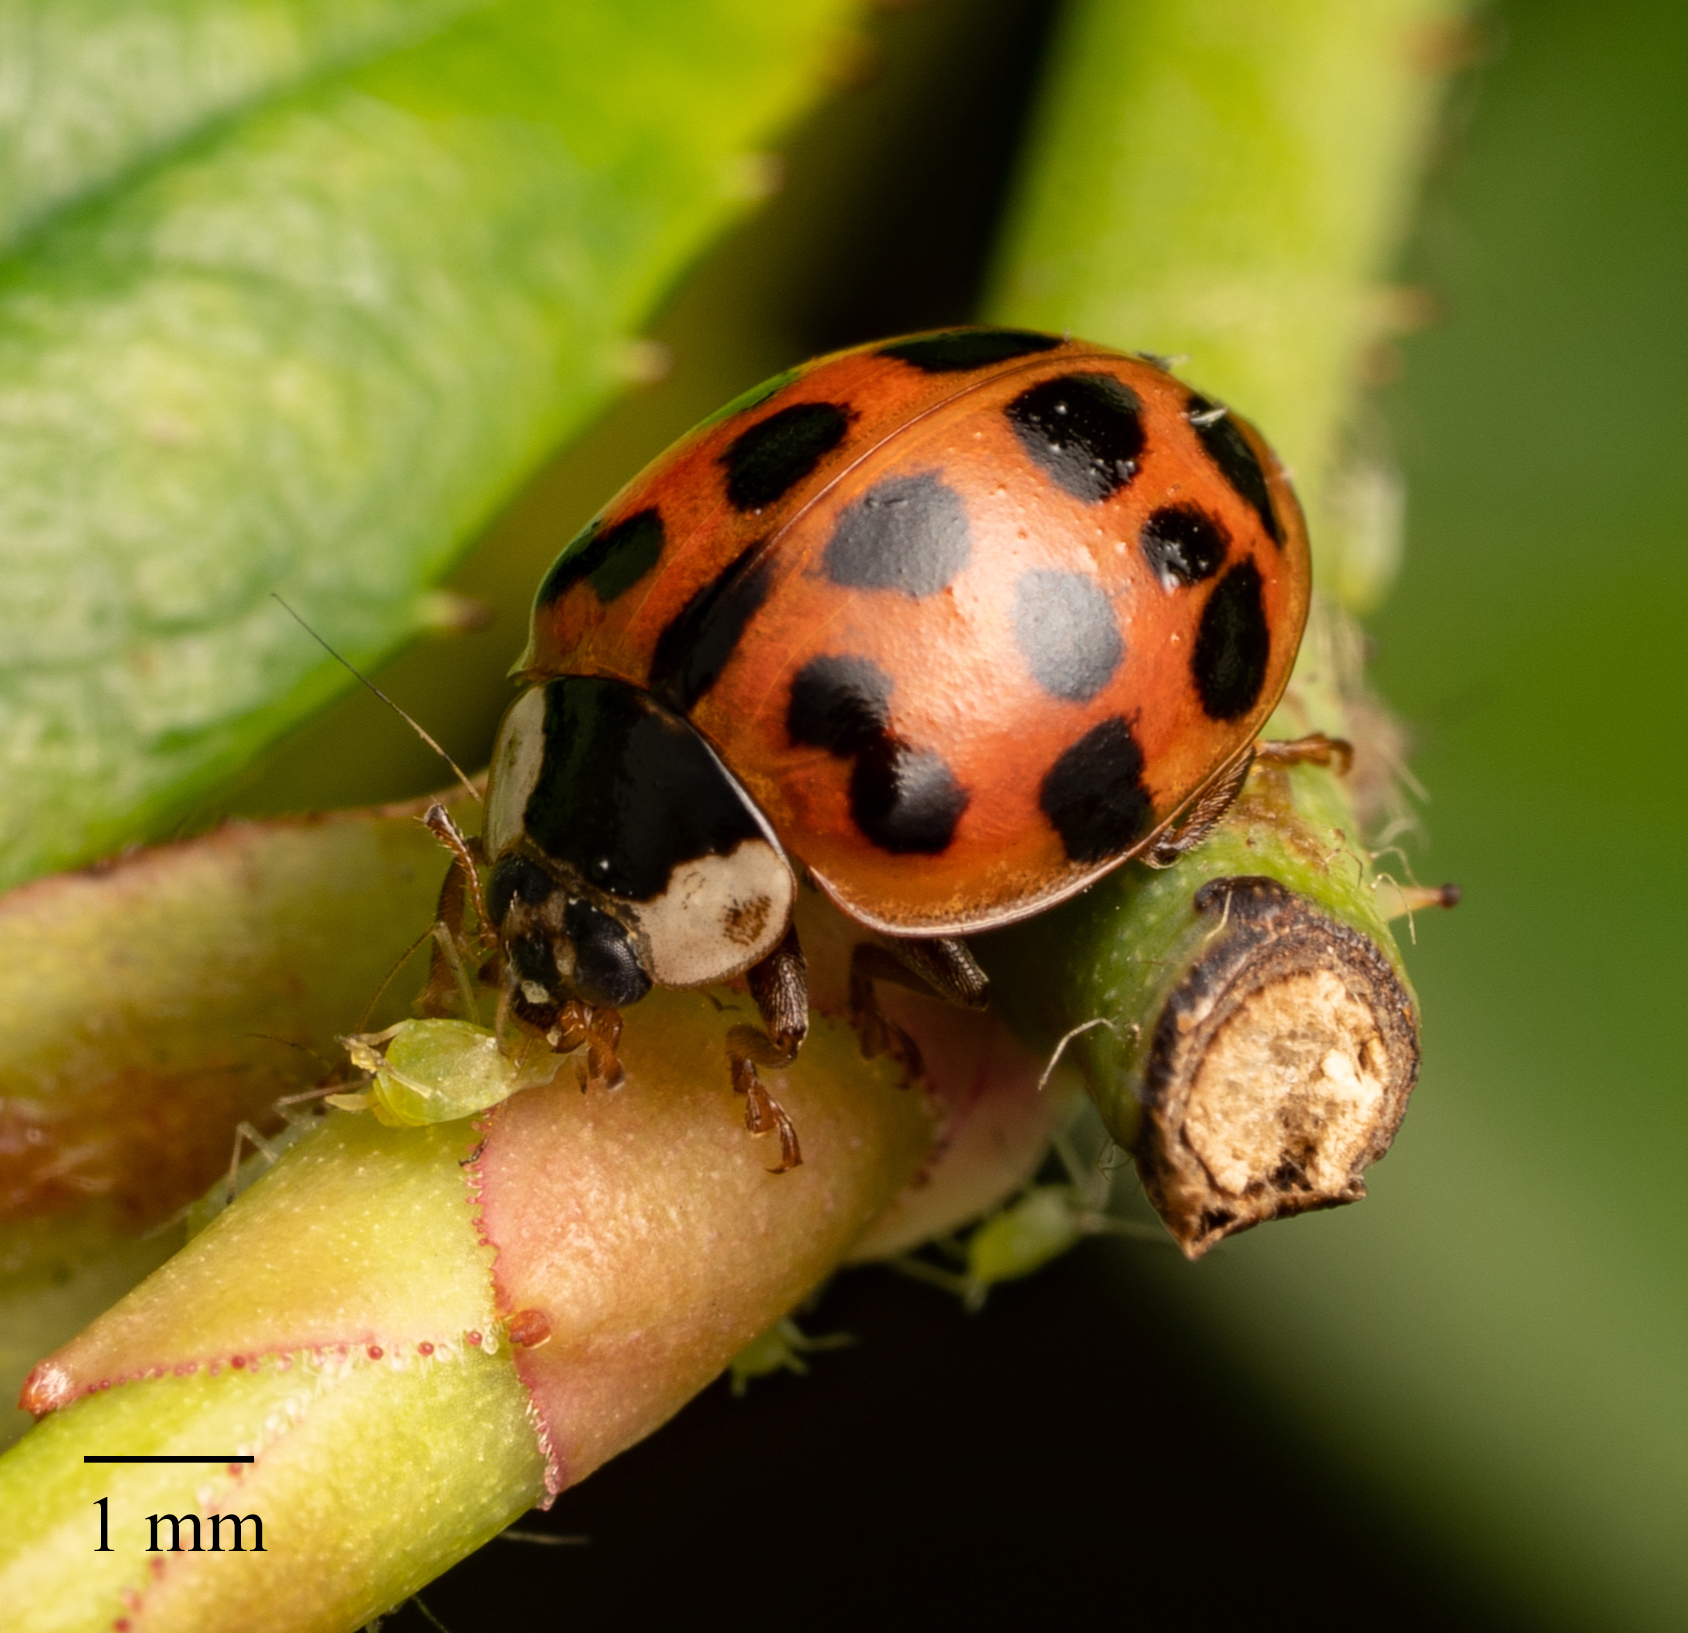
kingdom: Animalia
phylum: Arthropoda
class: Insecta
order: Coleoptera
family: Coccinellidae
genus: Harmonia
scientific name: Harmonia axyridis
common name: Harlequin ladybird
